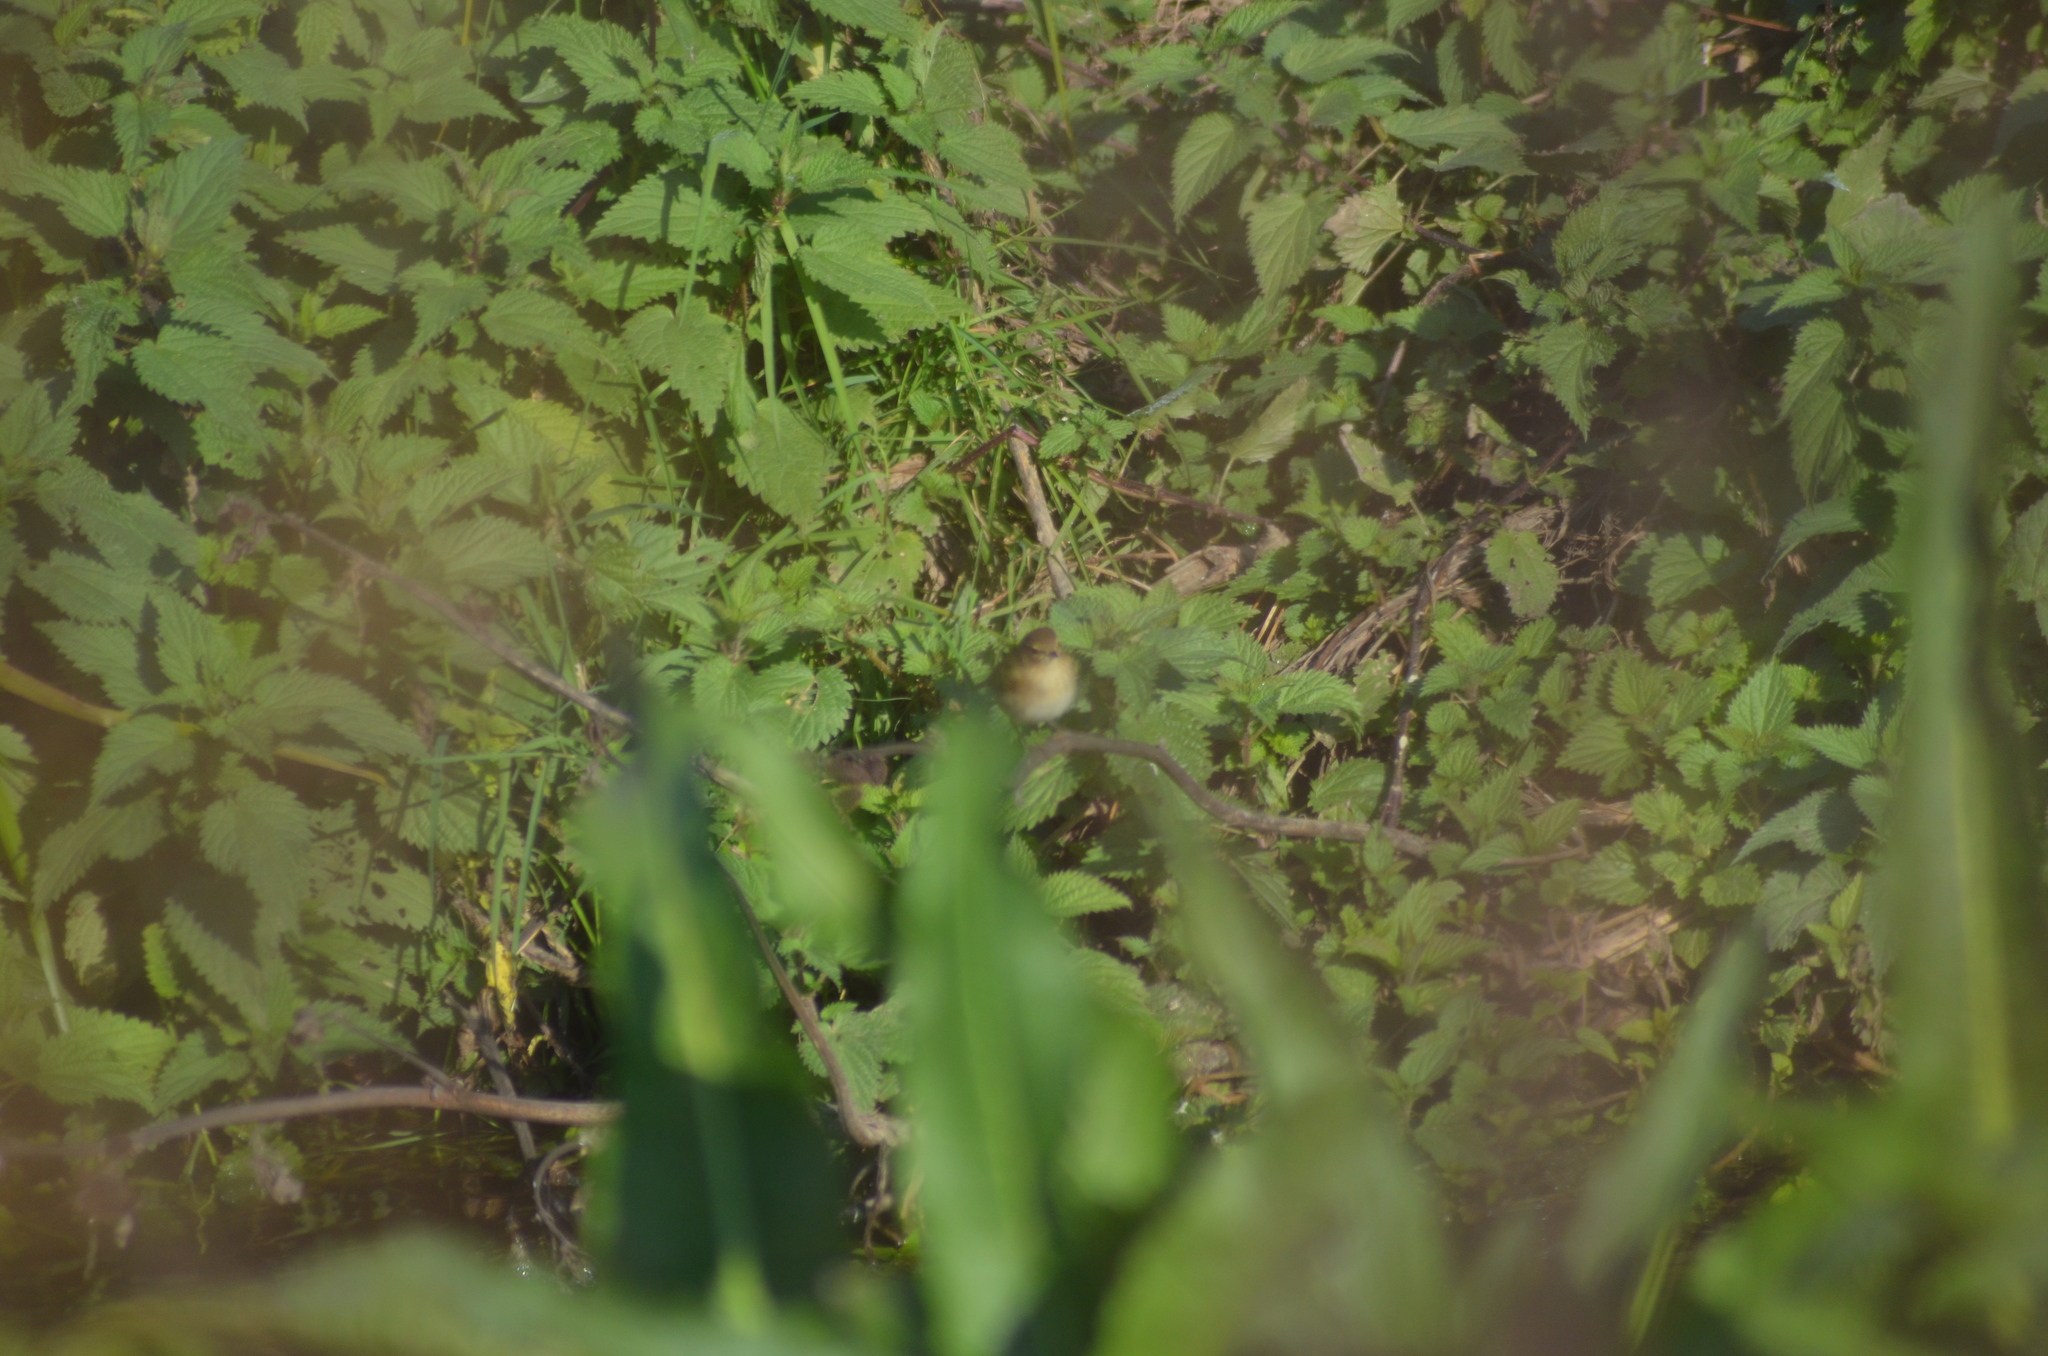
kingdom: Animalia
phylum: Chordata
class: Aves
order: Passeriformes
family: Phylloscopidae
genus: Phylloscopus
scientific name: Phylloscopus collybita
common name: Common chiffchaff
